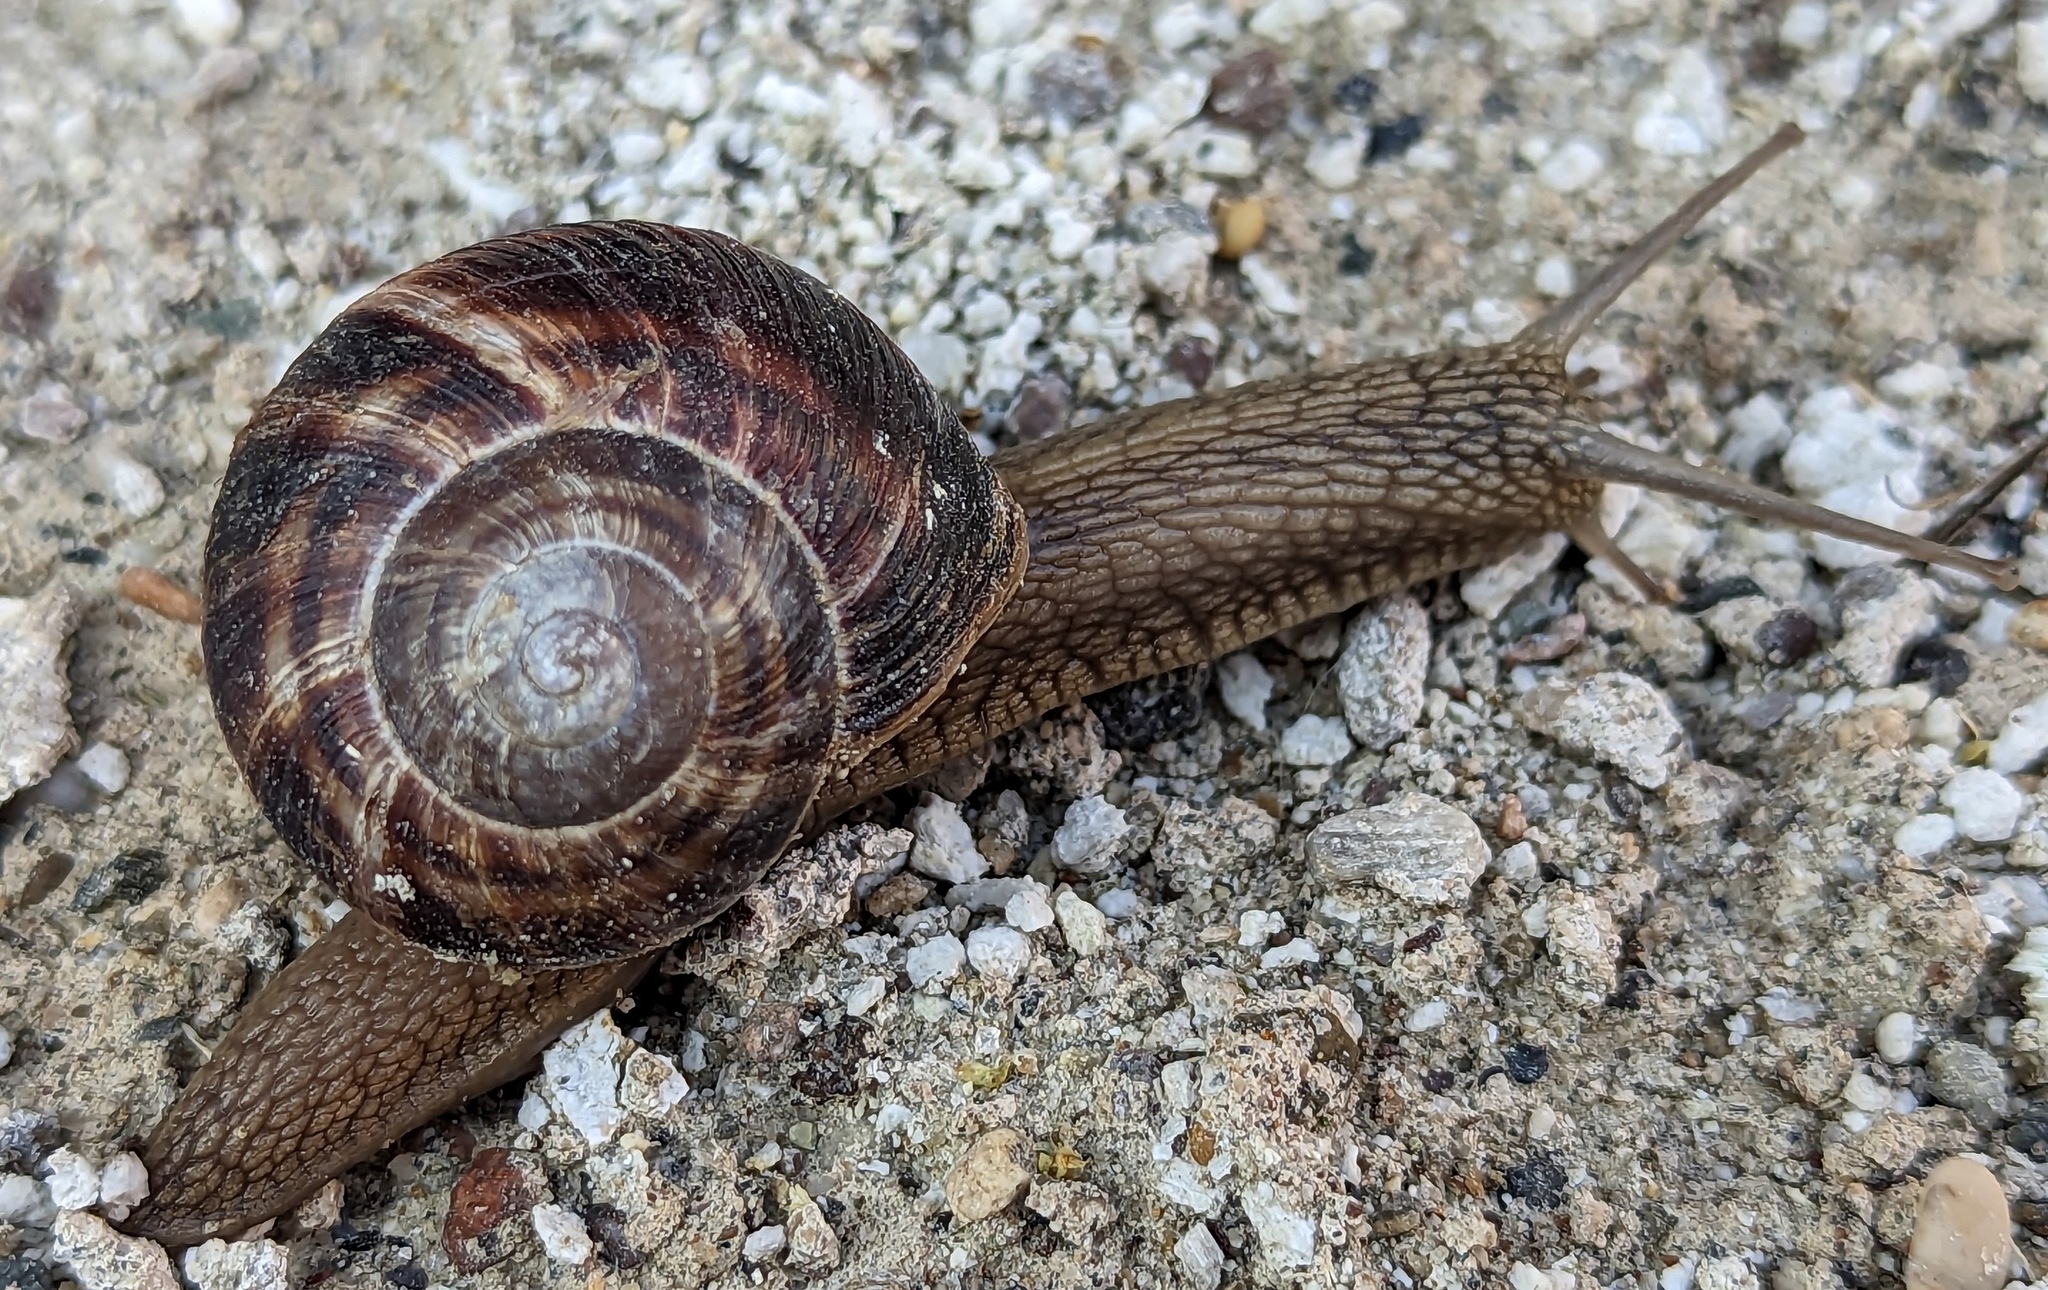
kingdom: Animalia
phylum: Mollusca
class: Gastropoda
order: Stylommatophora
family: Helicidae
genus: Helix
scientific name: Helix lucorum
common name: Turkish snail
